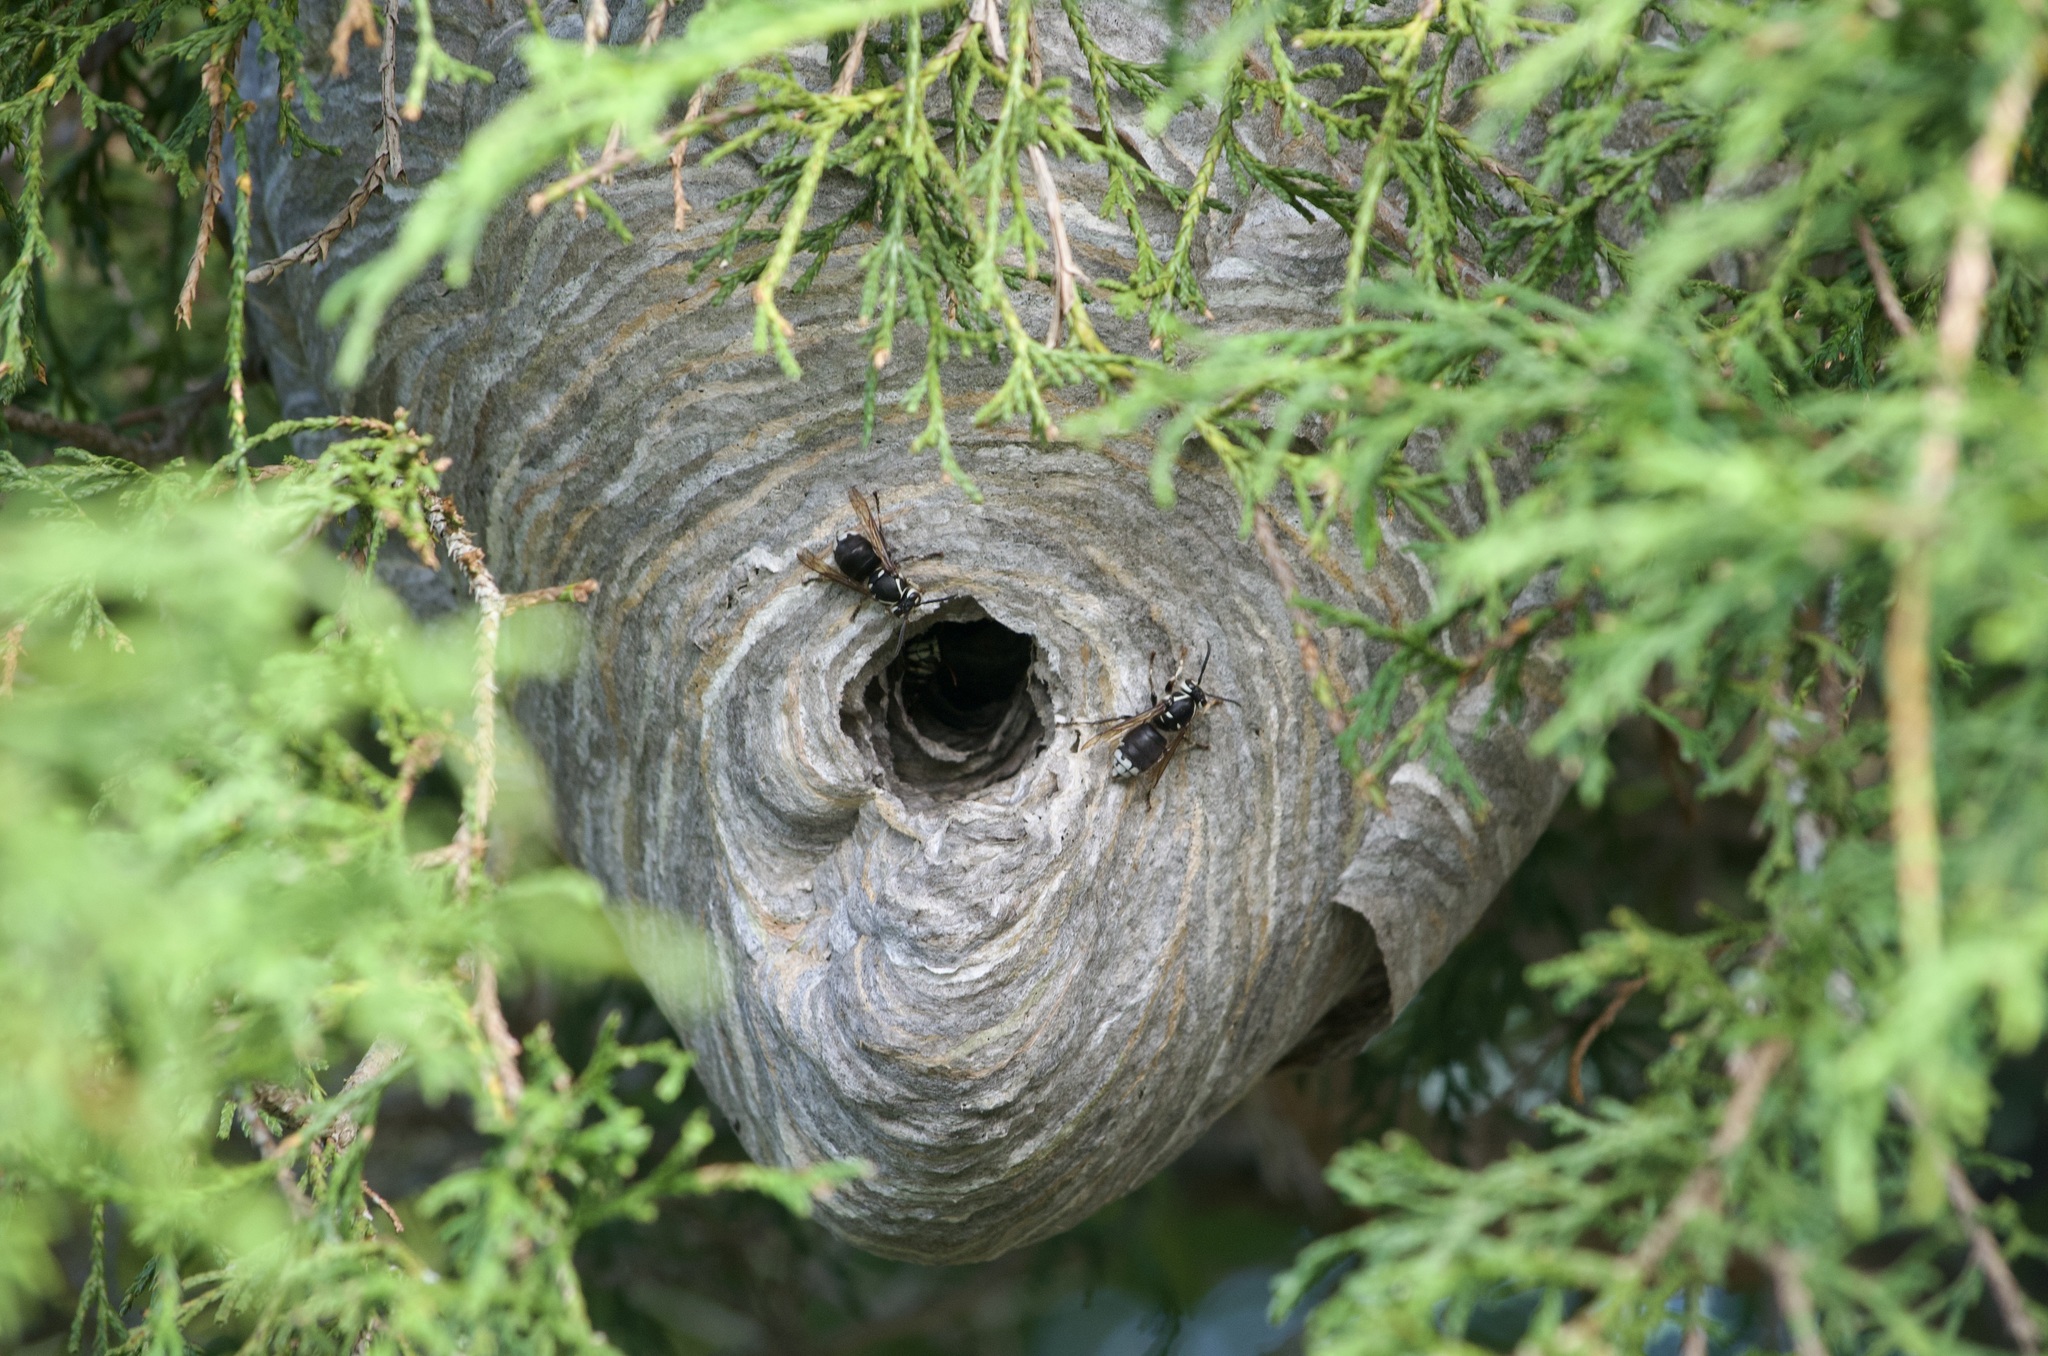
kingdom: Animalia
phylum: Arthropoda
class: Insecta
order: Hymenoptera
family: Vespidae
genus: Dolichovespula
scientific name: Dolichovespula maculata
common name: Bald-faced hornet
